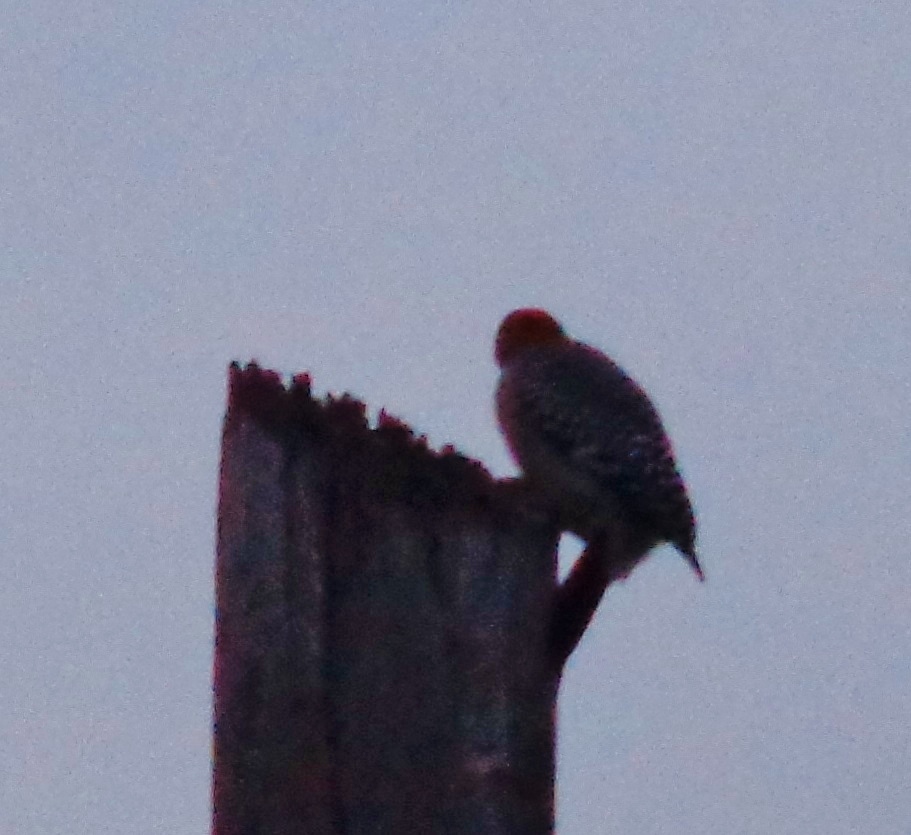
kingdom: Animalia
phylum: Chordata
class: Aves
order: Piciformes
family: Picidae
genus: Melanerpes
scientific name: Melanerpes aurifrons
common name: Golden-fronted woodpecker
